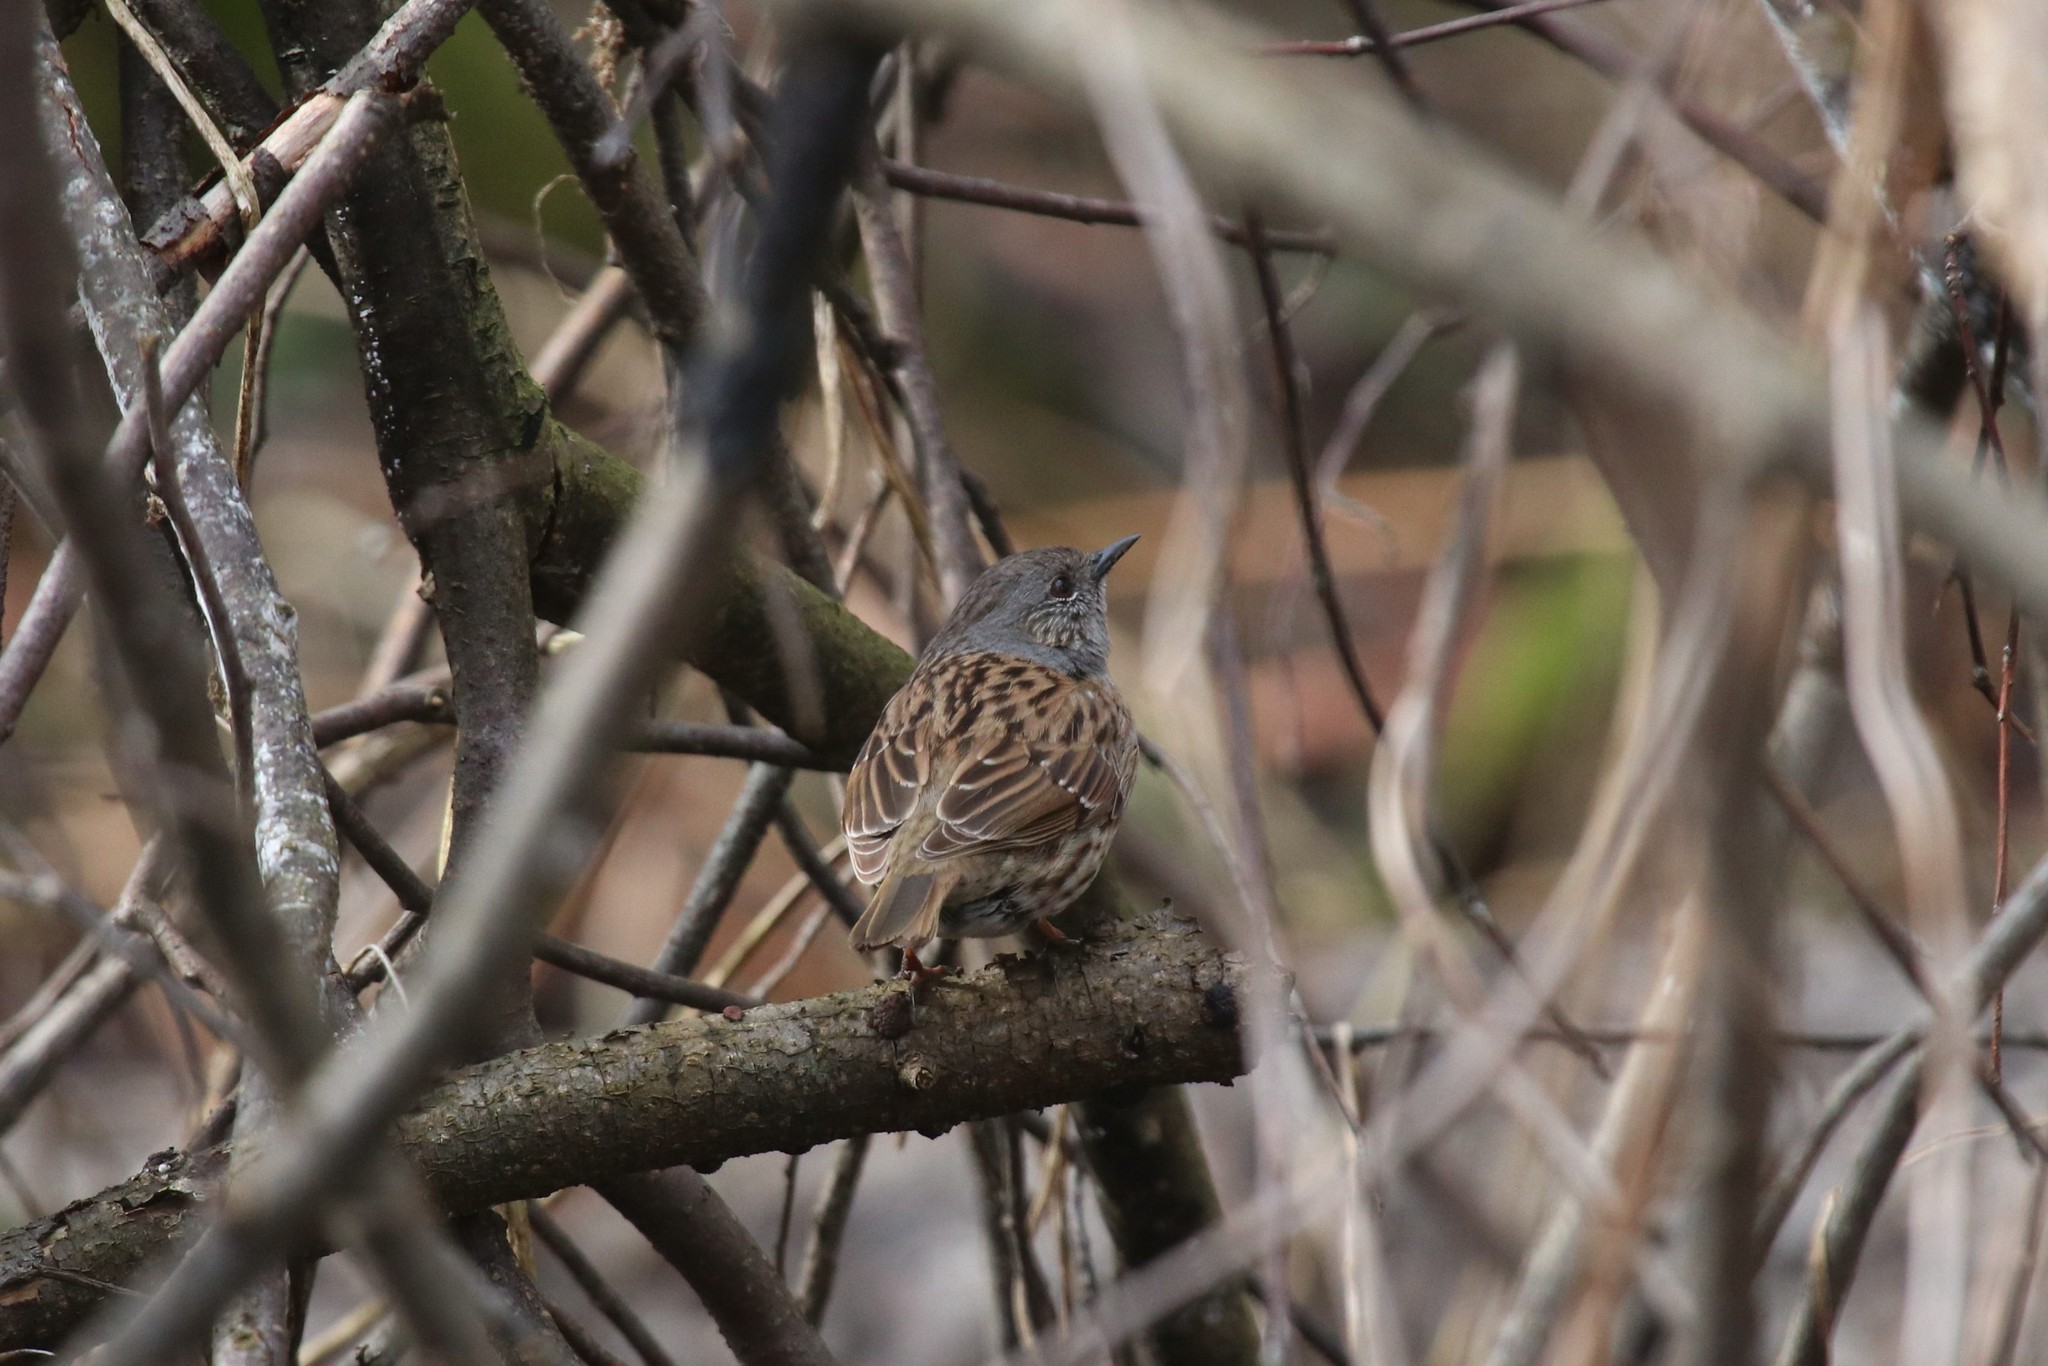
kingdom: Animalia
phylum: Chordata
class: Aves
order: Passeriformes
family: Prunellidae
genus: Prunella
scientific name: Prunella modularis
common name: Dunnock
